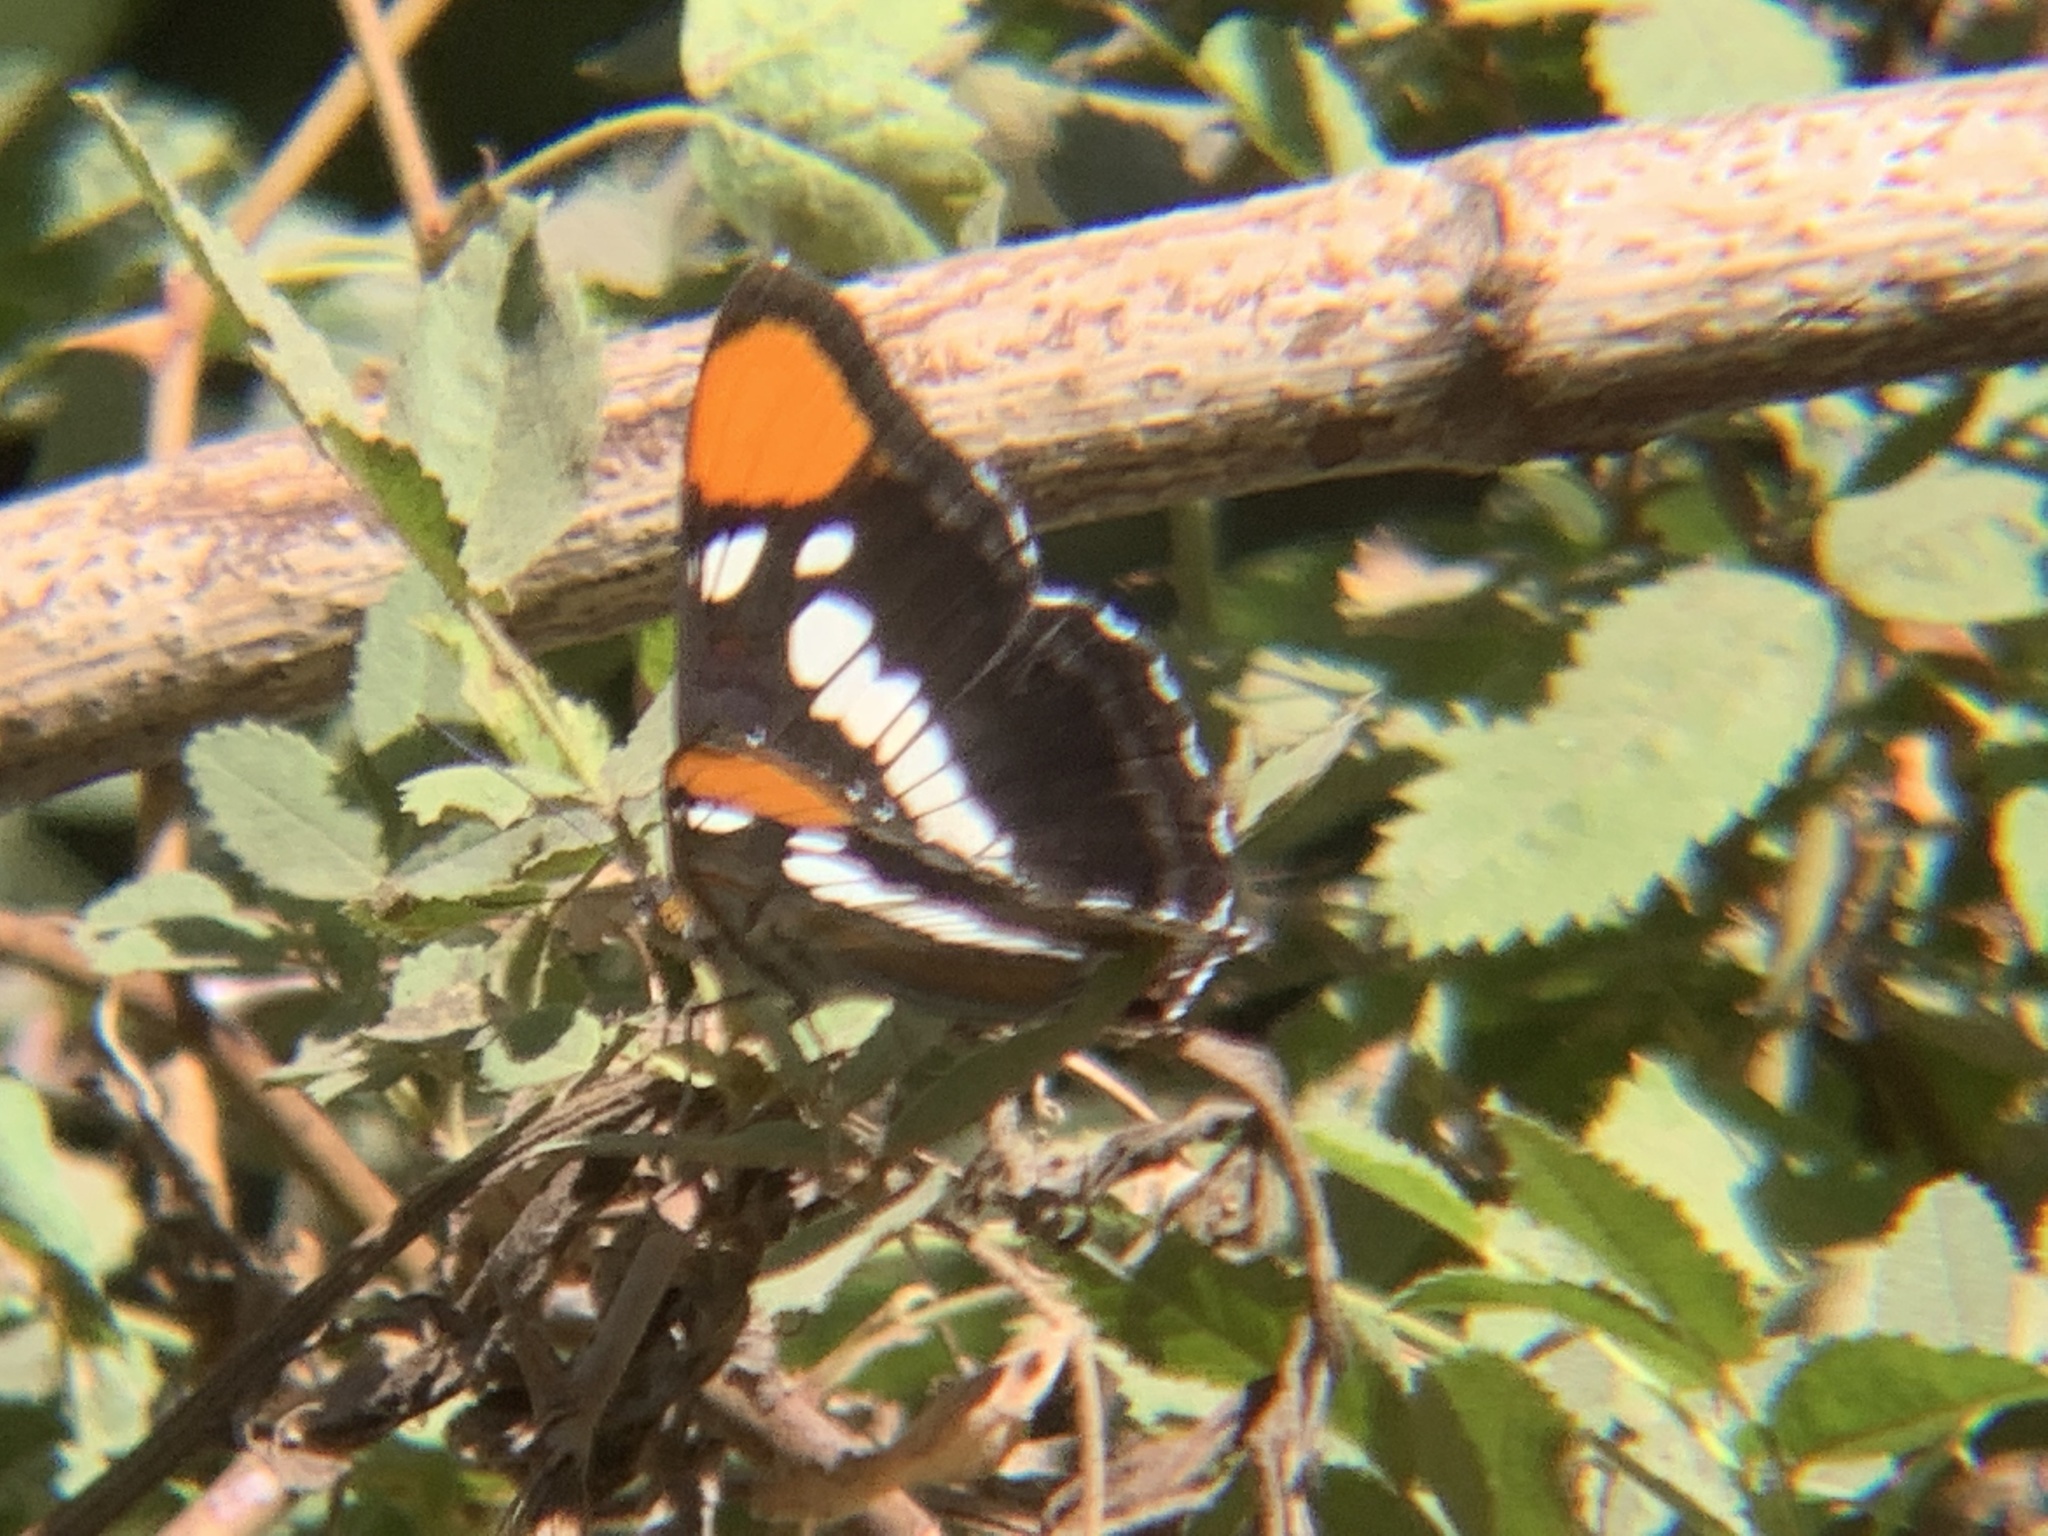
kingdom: Animalia
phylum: Arthropoda
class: Insecta
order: Lepidoptera
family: Nymphalidae
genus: Limenitis
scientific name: Limenitis bredowii
